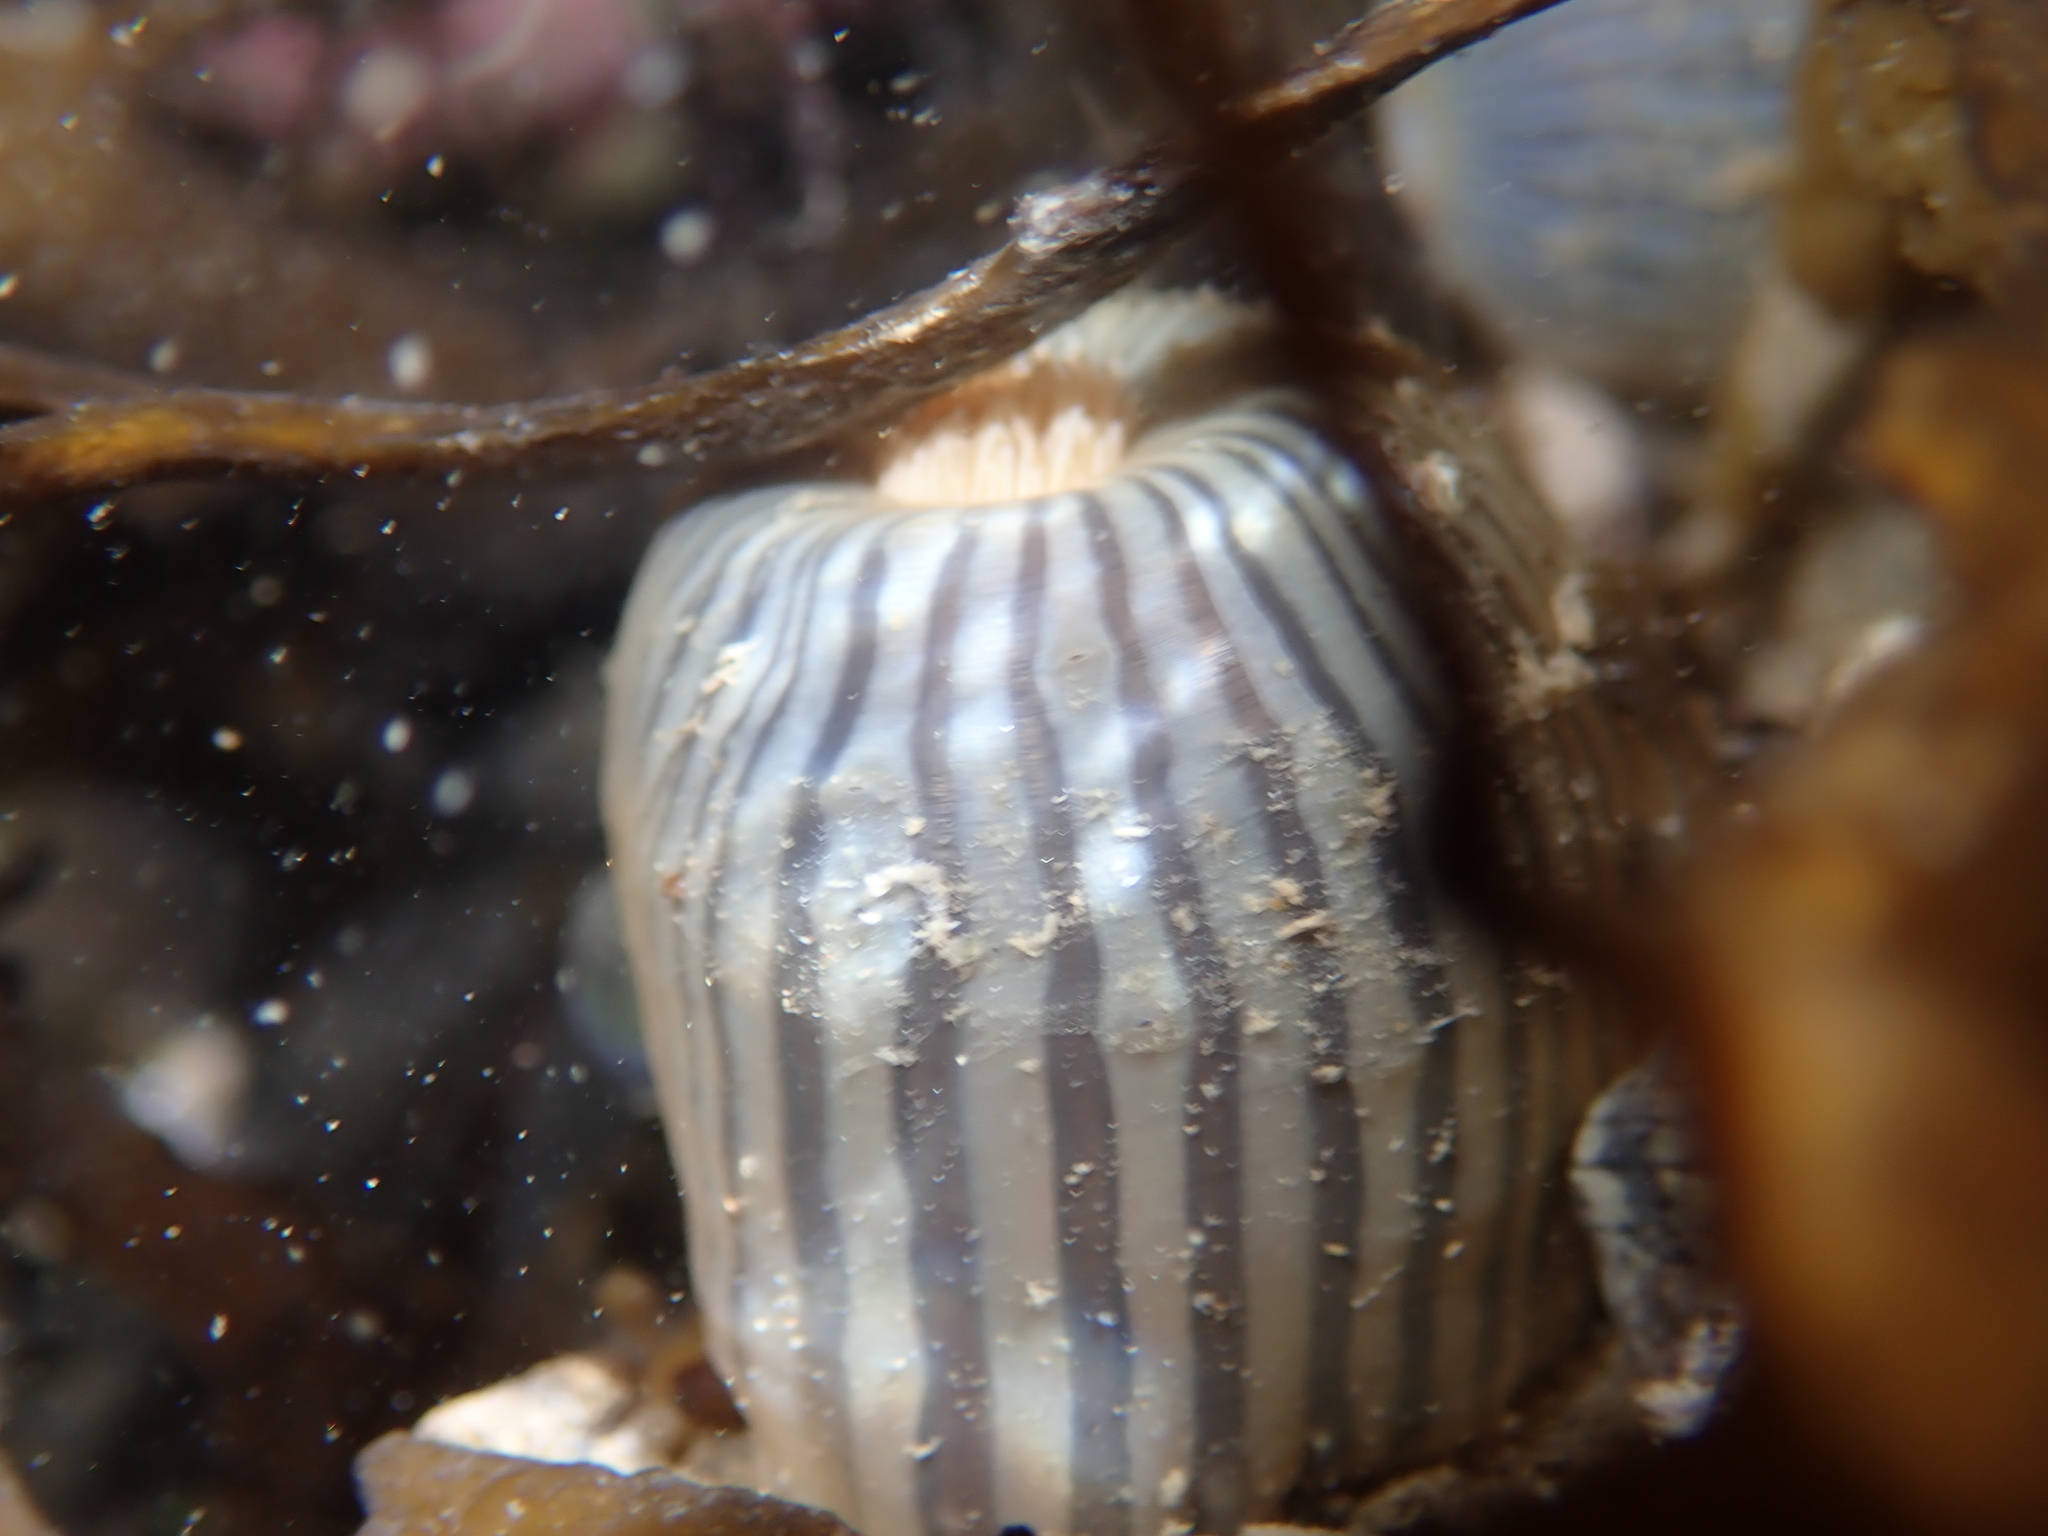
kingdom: Animalia
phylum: Cnidaria
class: Anthozoa
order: Actiniaria
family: Diadumenidae
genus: Diadumene
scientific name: Diadumene neozelanica
